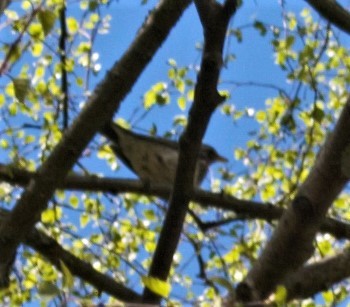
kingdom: Animalia
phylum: Chordata
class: Aves
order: Passeriformes
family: Turdidae
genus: Turdus
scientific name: Turdus pilaris
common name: Fieldfare
